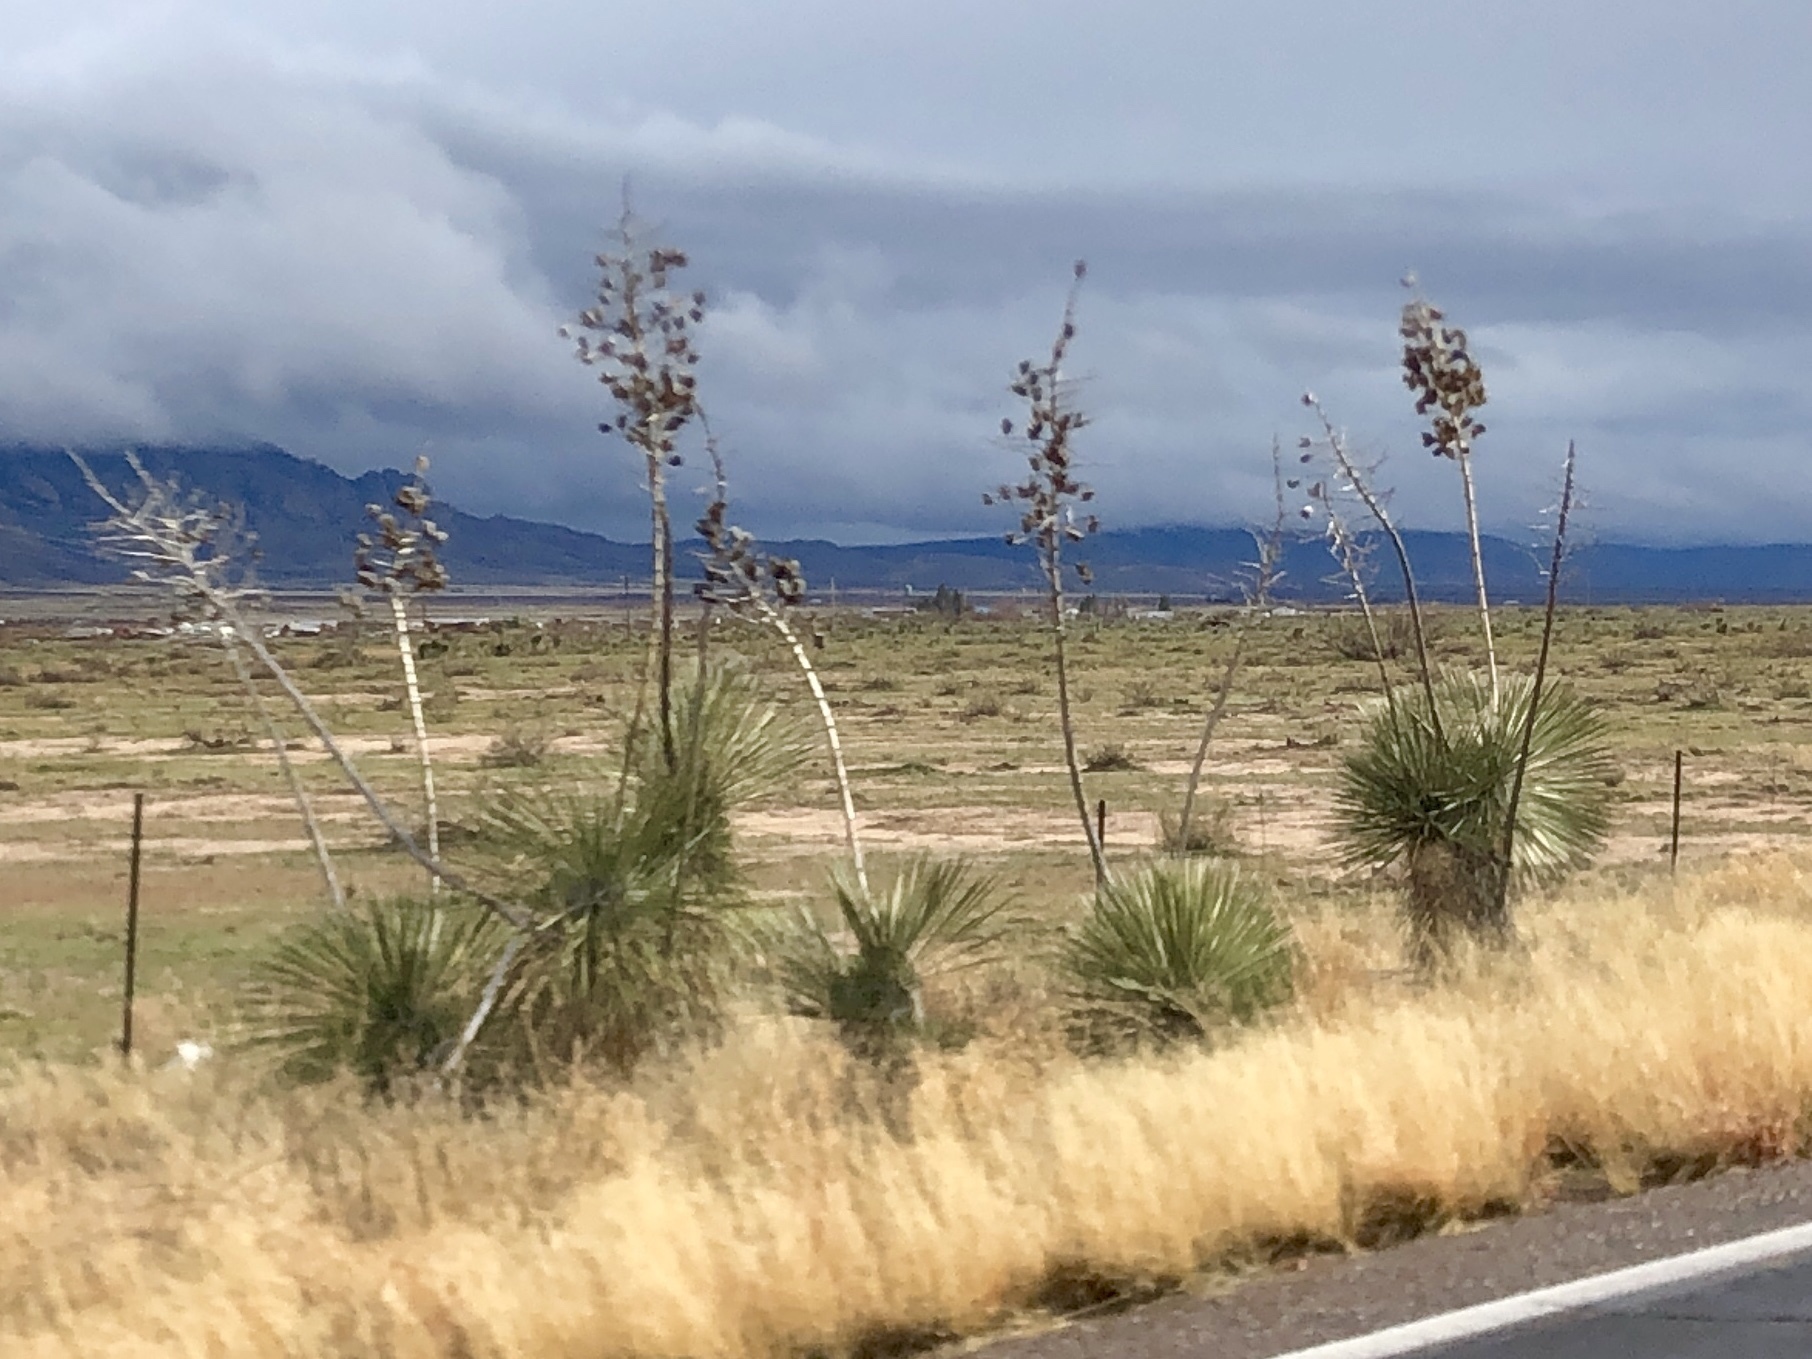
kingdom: Plantae
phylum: Tracheophyta
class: Liliopsida
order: Asparagales
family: Asparagaceae
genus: Yucca
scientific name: Yucca elata
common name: Palmella
